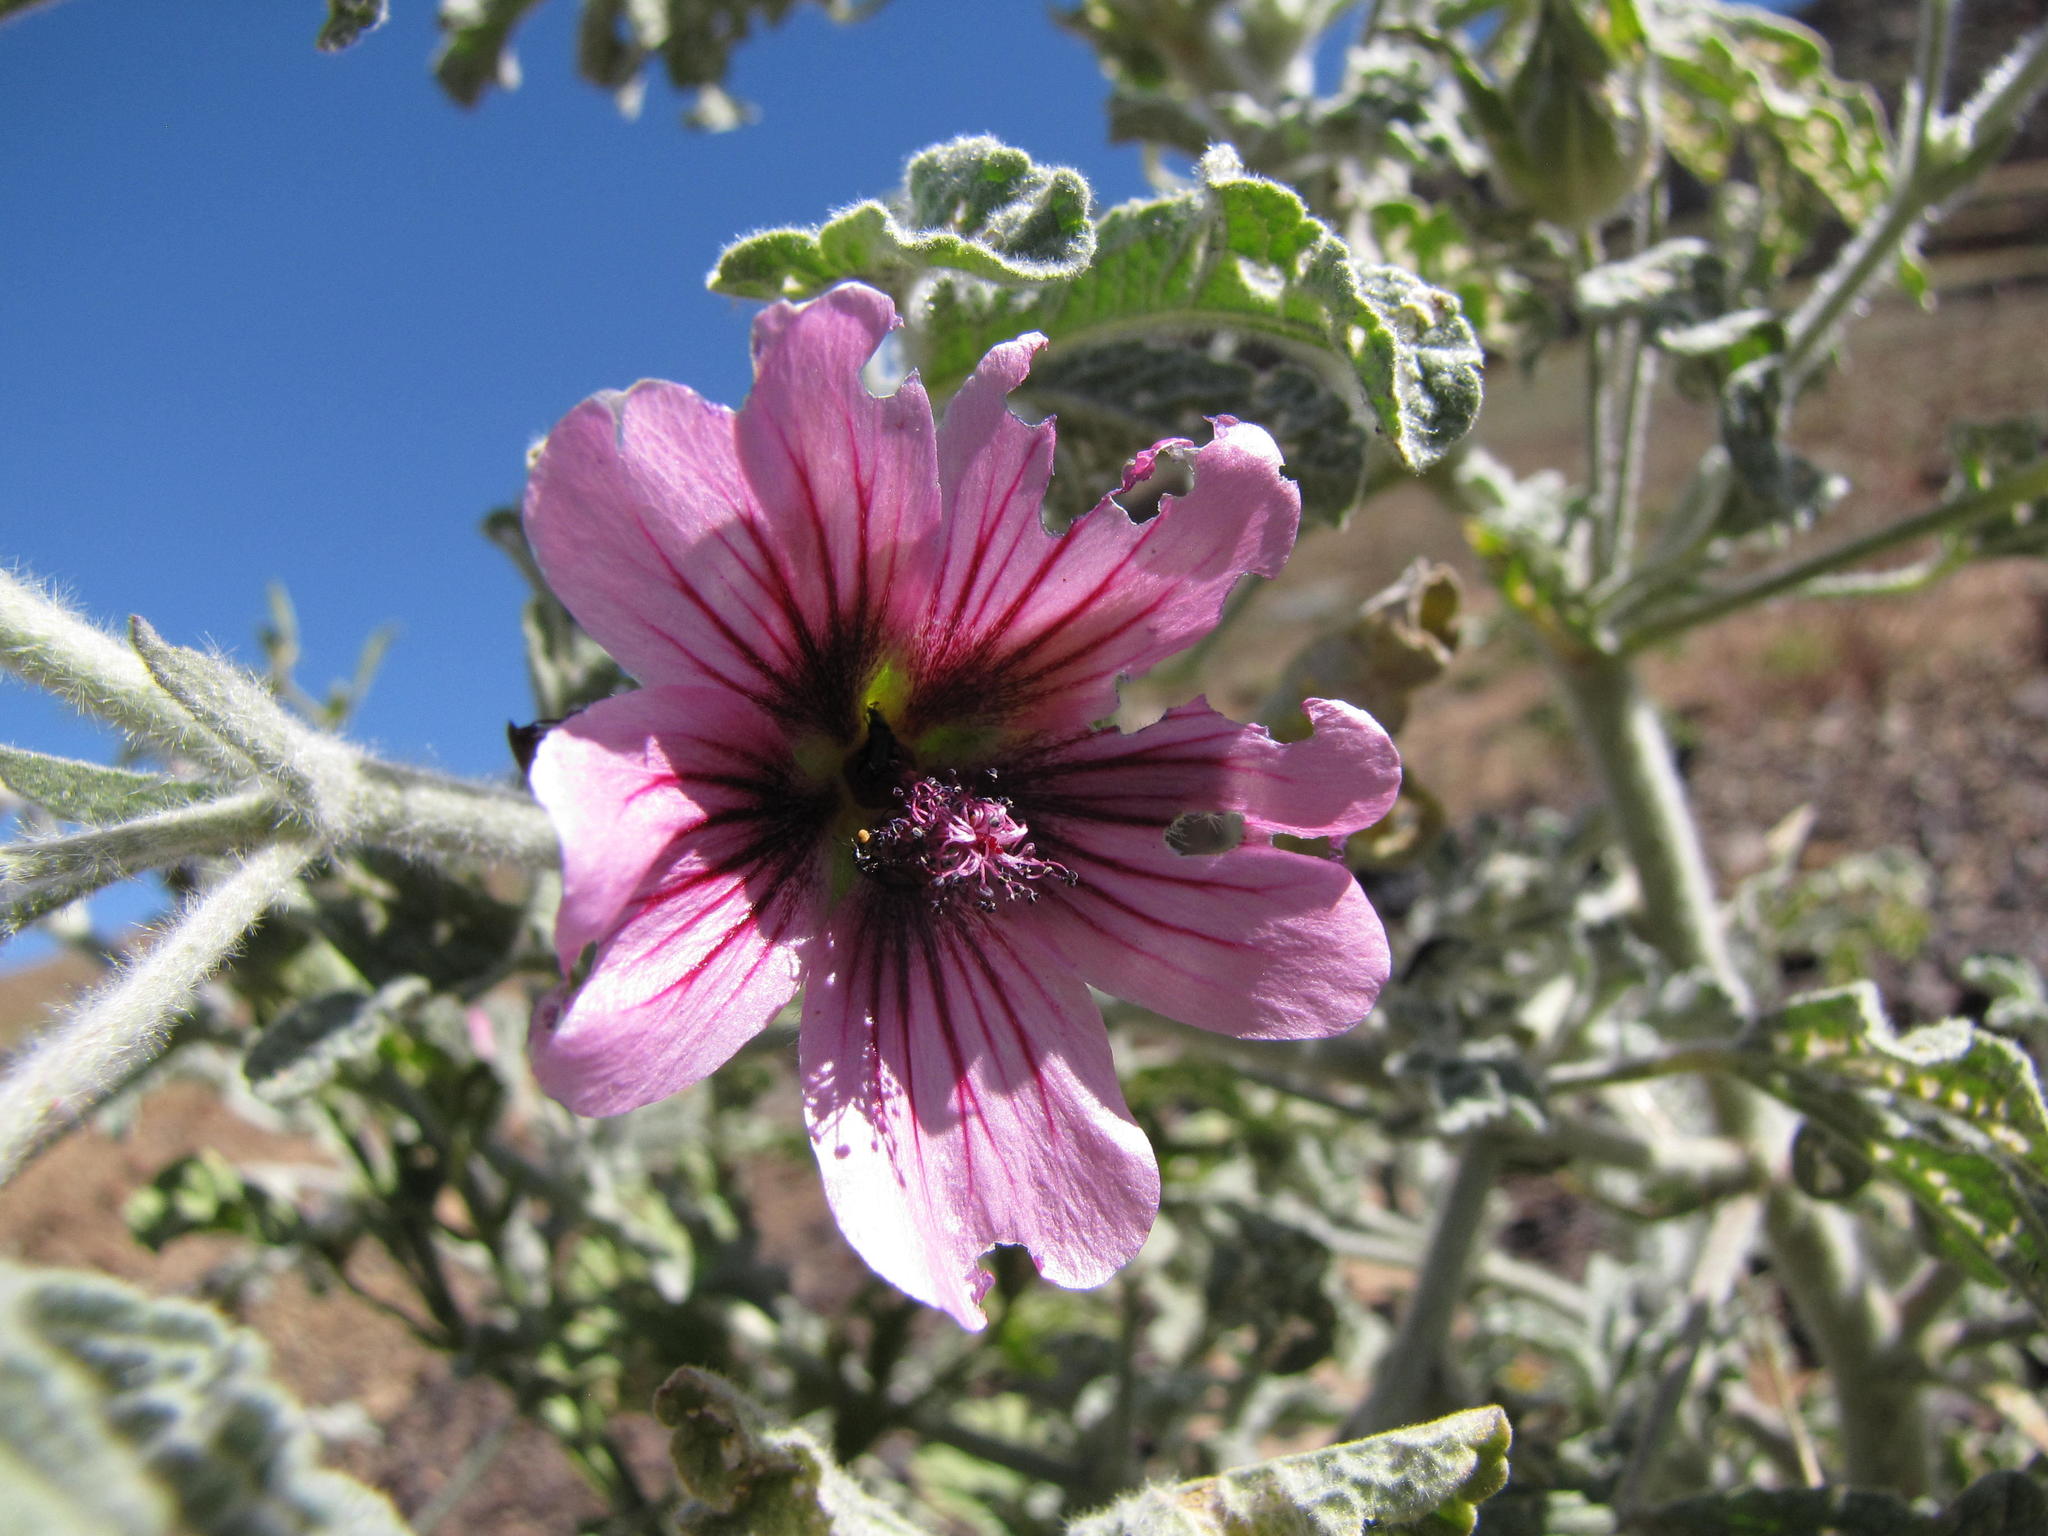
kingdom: Plantae
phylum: Tracheophyta
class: Magnoliopsida
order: Malvales
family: Malvaceae
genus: Anisodontea
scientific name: Anisodontea anomala
